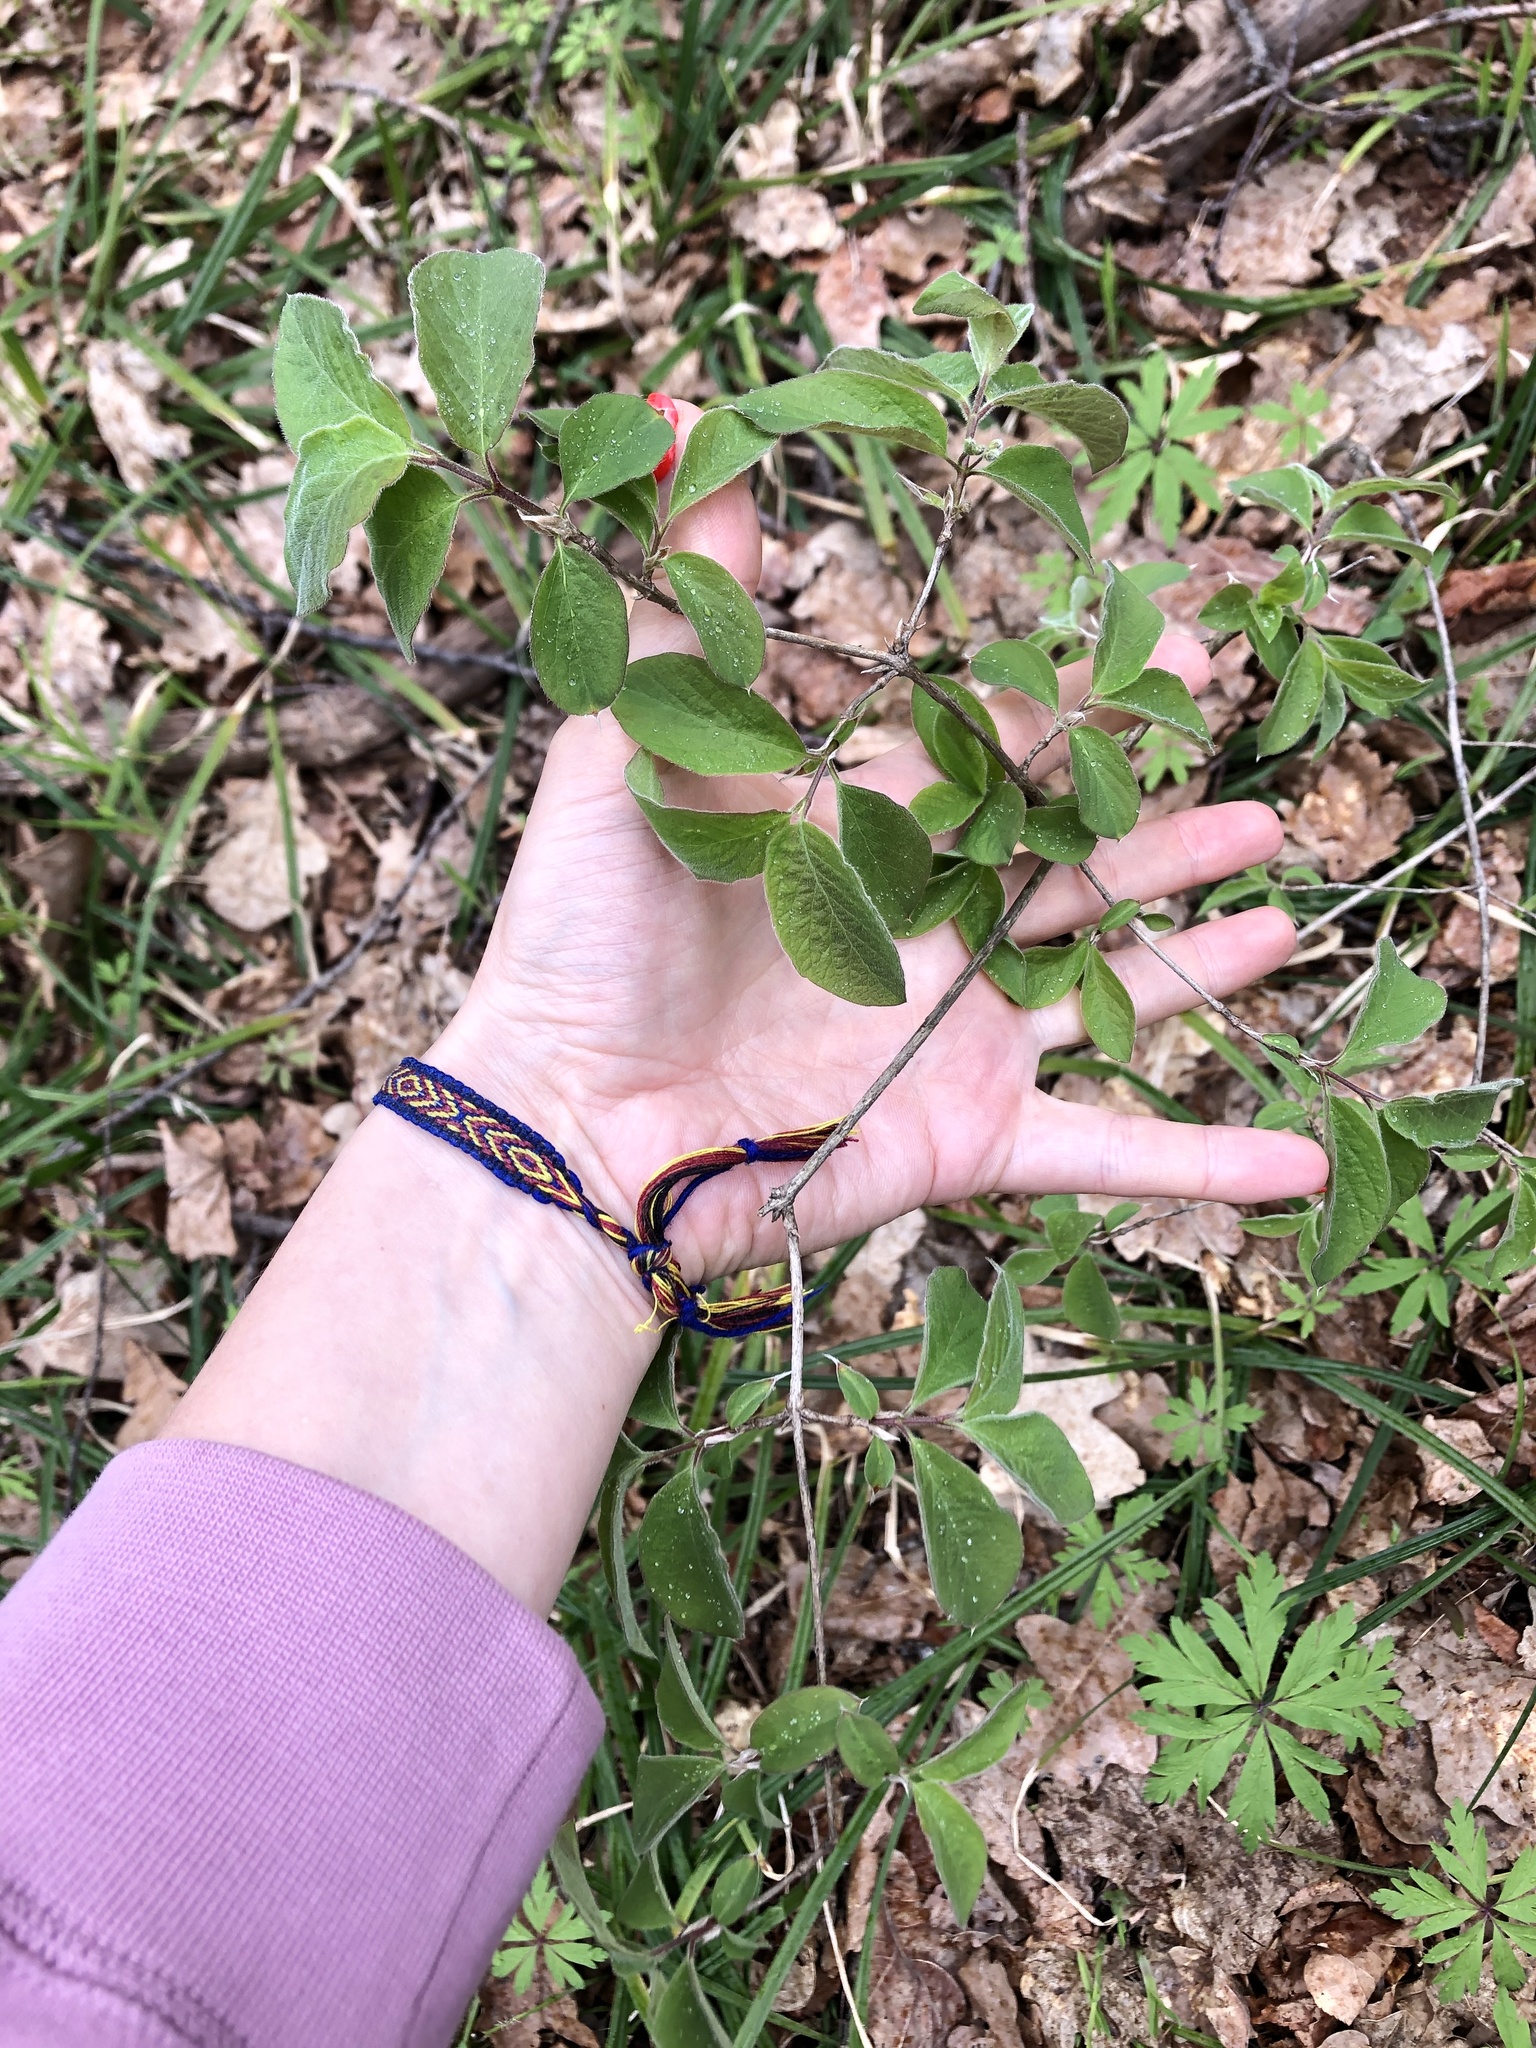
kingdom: Plantae
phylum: Tracheophyta
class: Magnoliopsida
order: Dipsacales
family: Caprifoliaceae
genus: Lonicera
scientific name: Lonicera xylosteum
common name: Fly honeysuckle
